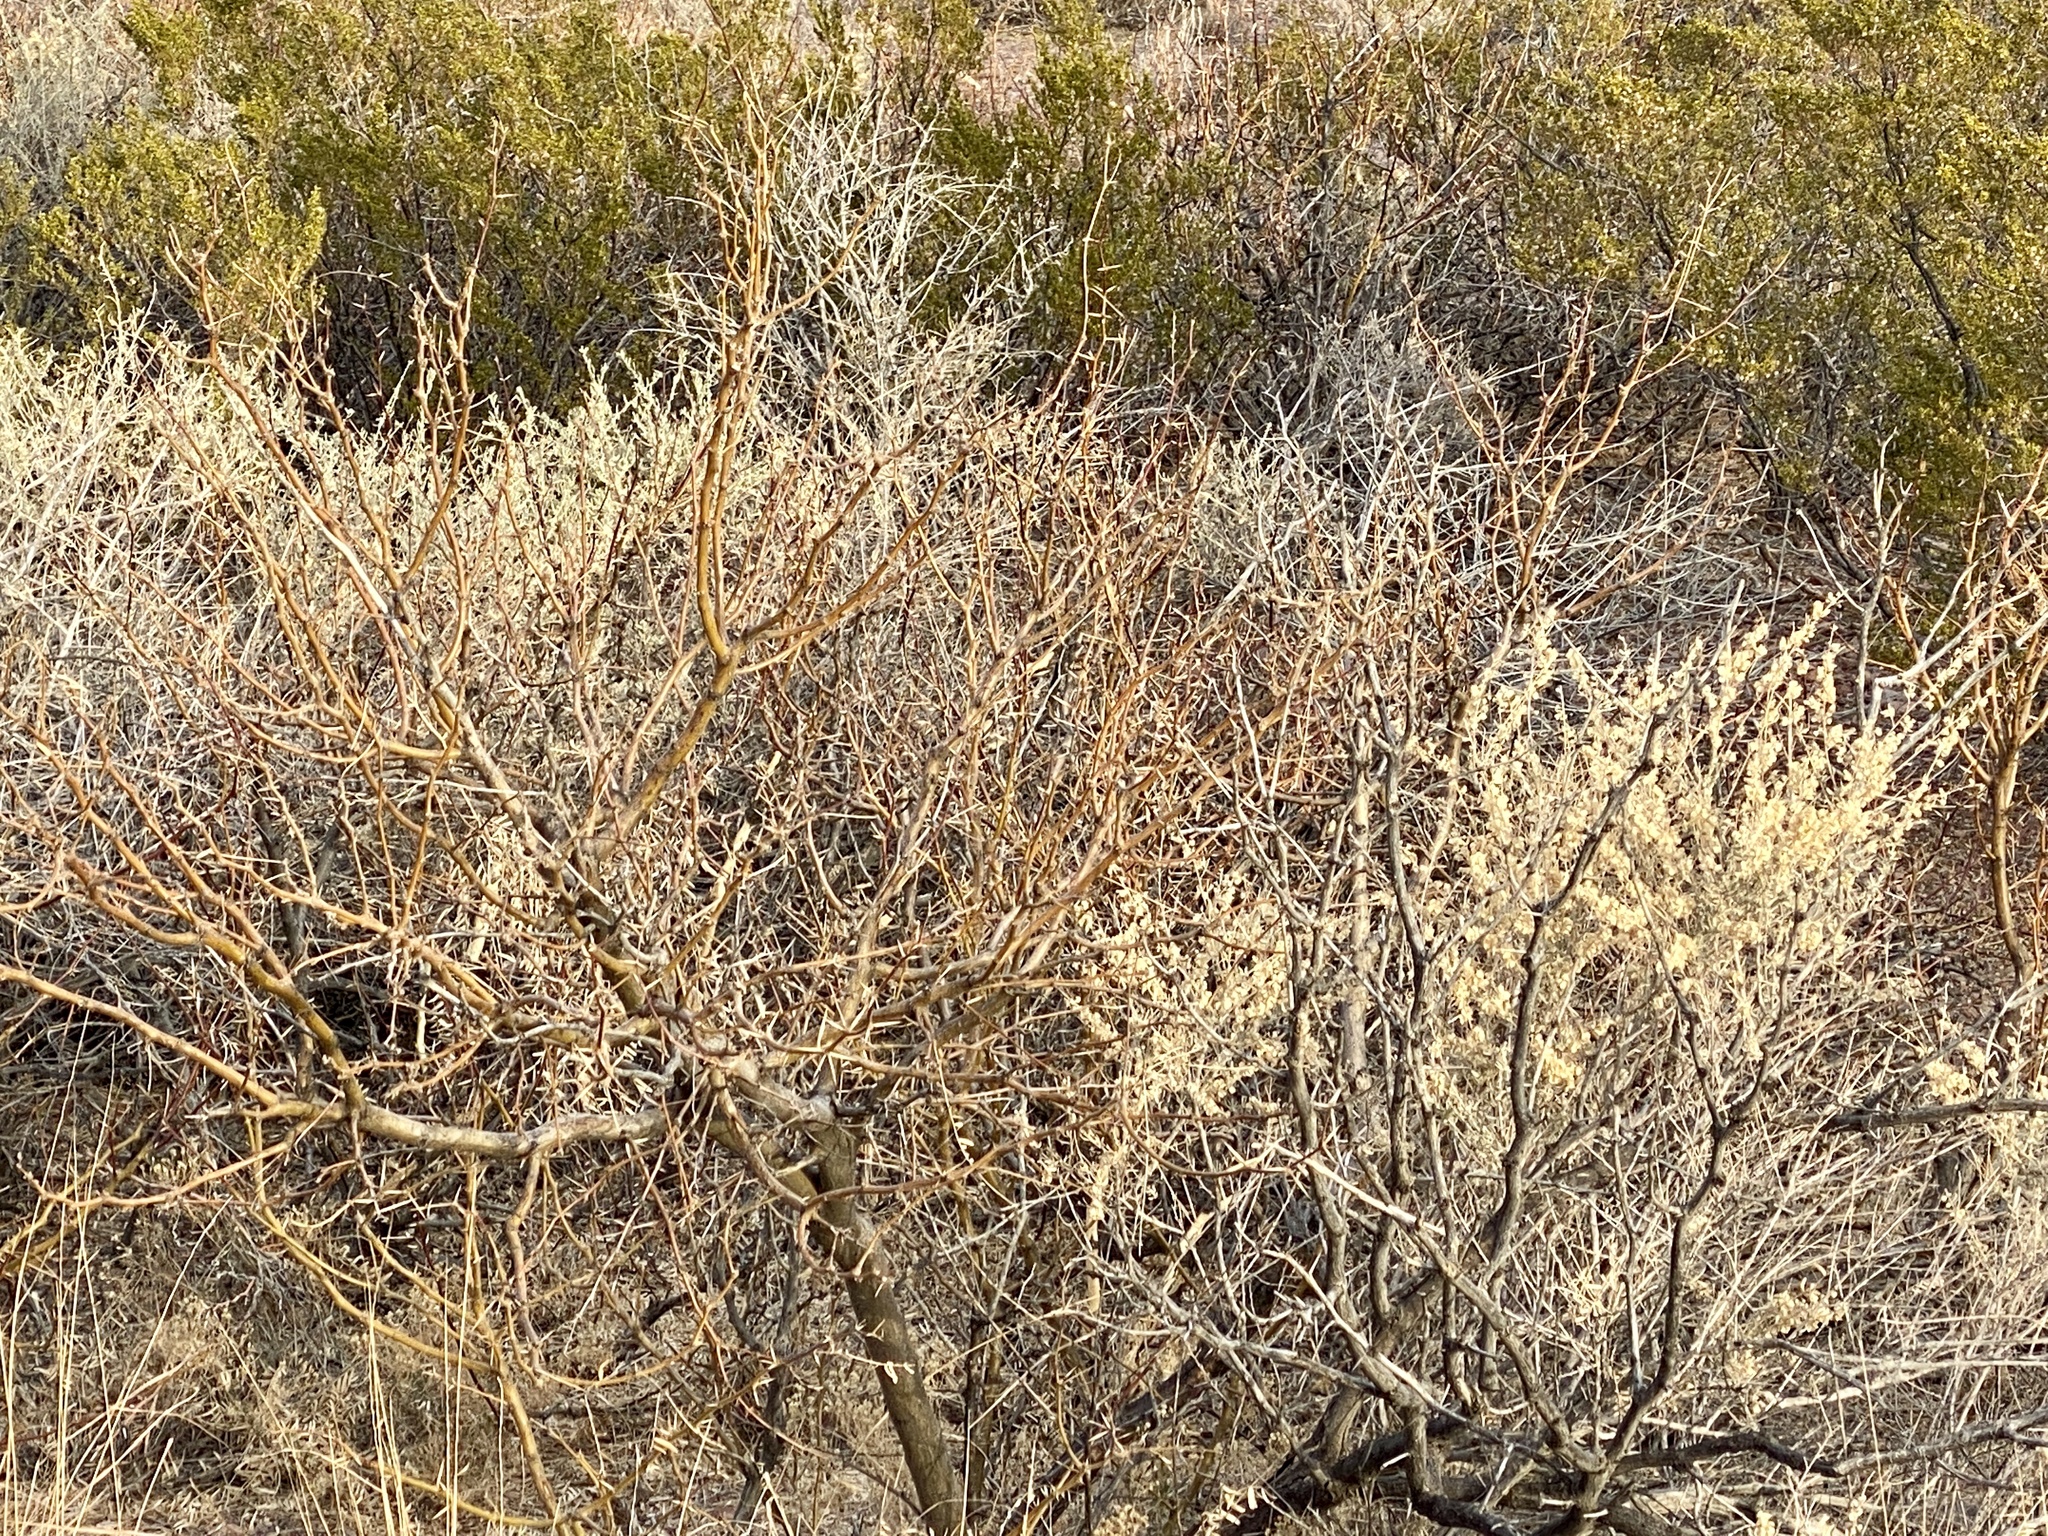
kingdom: Plantae
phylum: Tracheophyta
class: Magnoliopsida
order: Caryophyllales
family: Amaranthaceae
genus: Atriplex
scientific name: Atriplex canescens
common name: Four-wing saltbush
